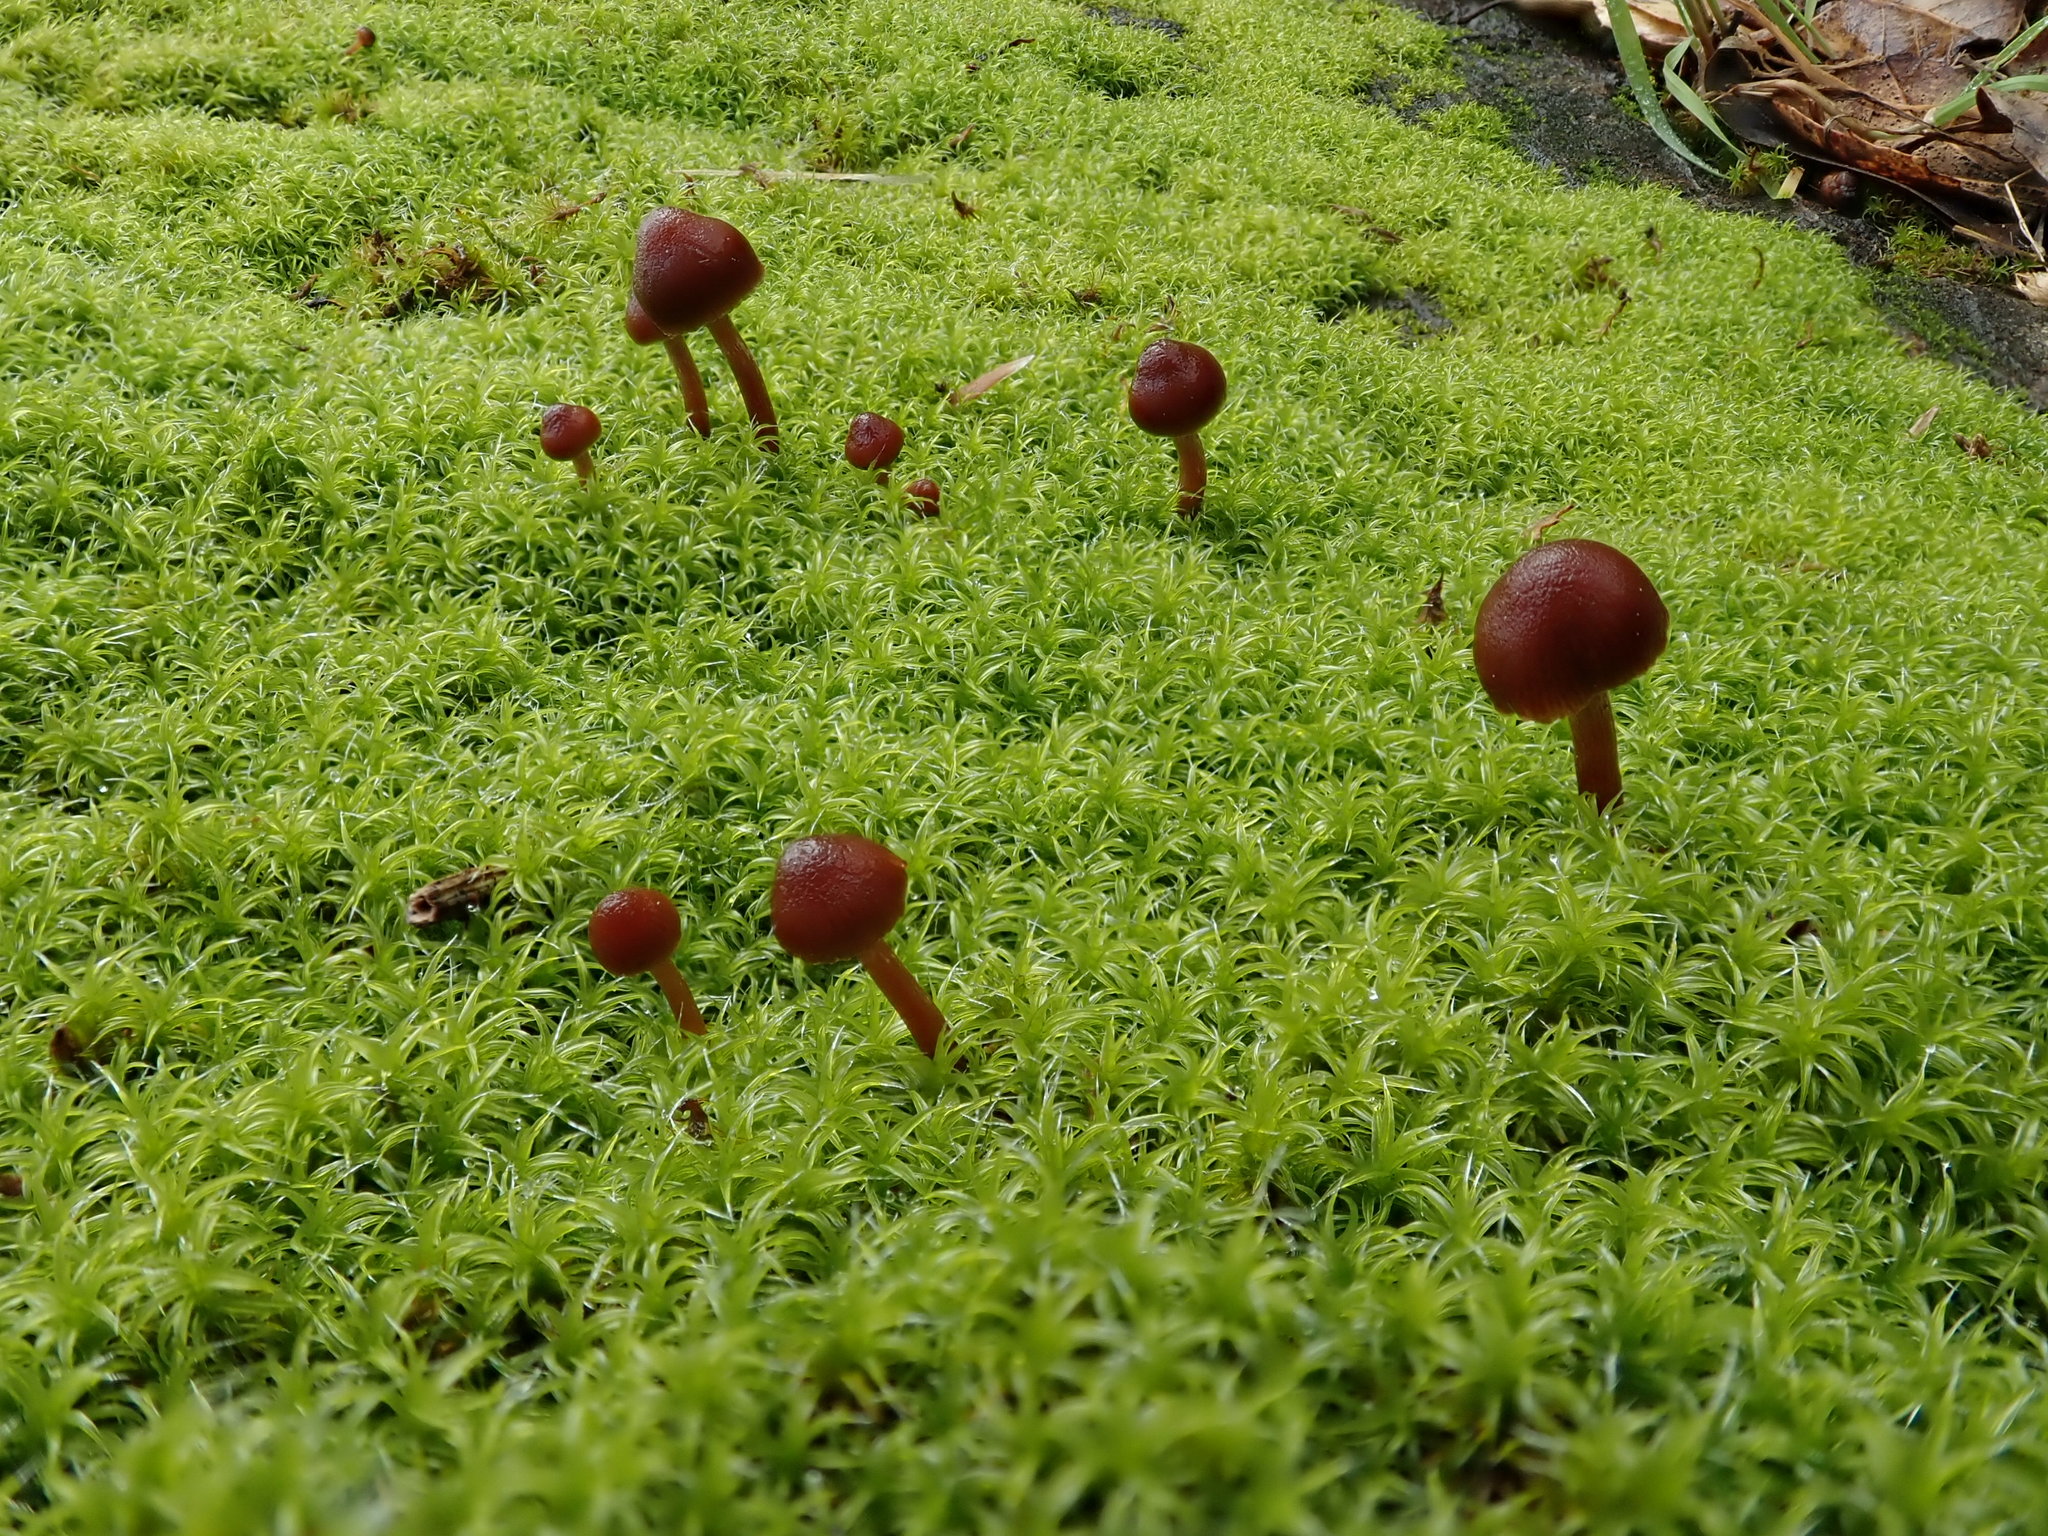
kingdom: Fungi
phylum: Basidiomycota
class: Agaricomycetes
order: Agaricales
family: Strophariaceae
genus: Deconica
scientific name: Deconica montana
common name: Mountain moss deconica
